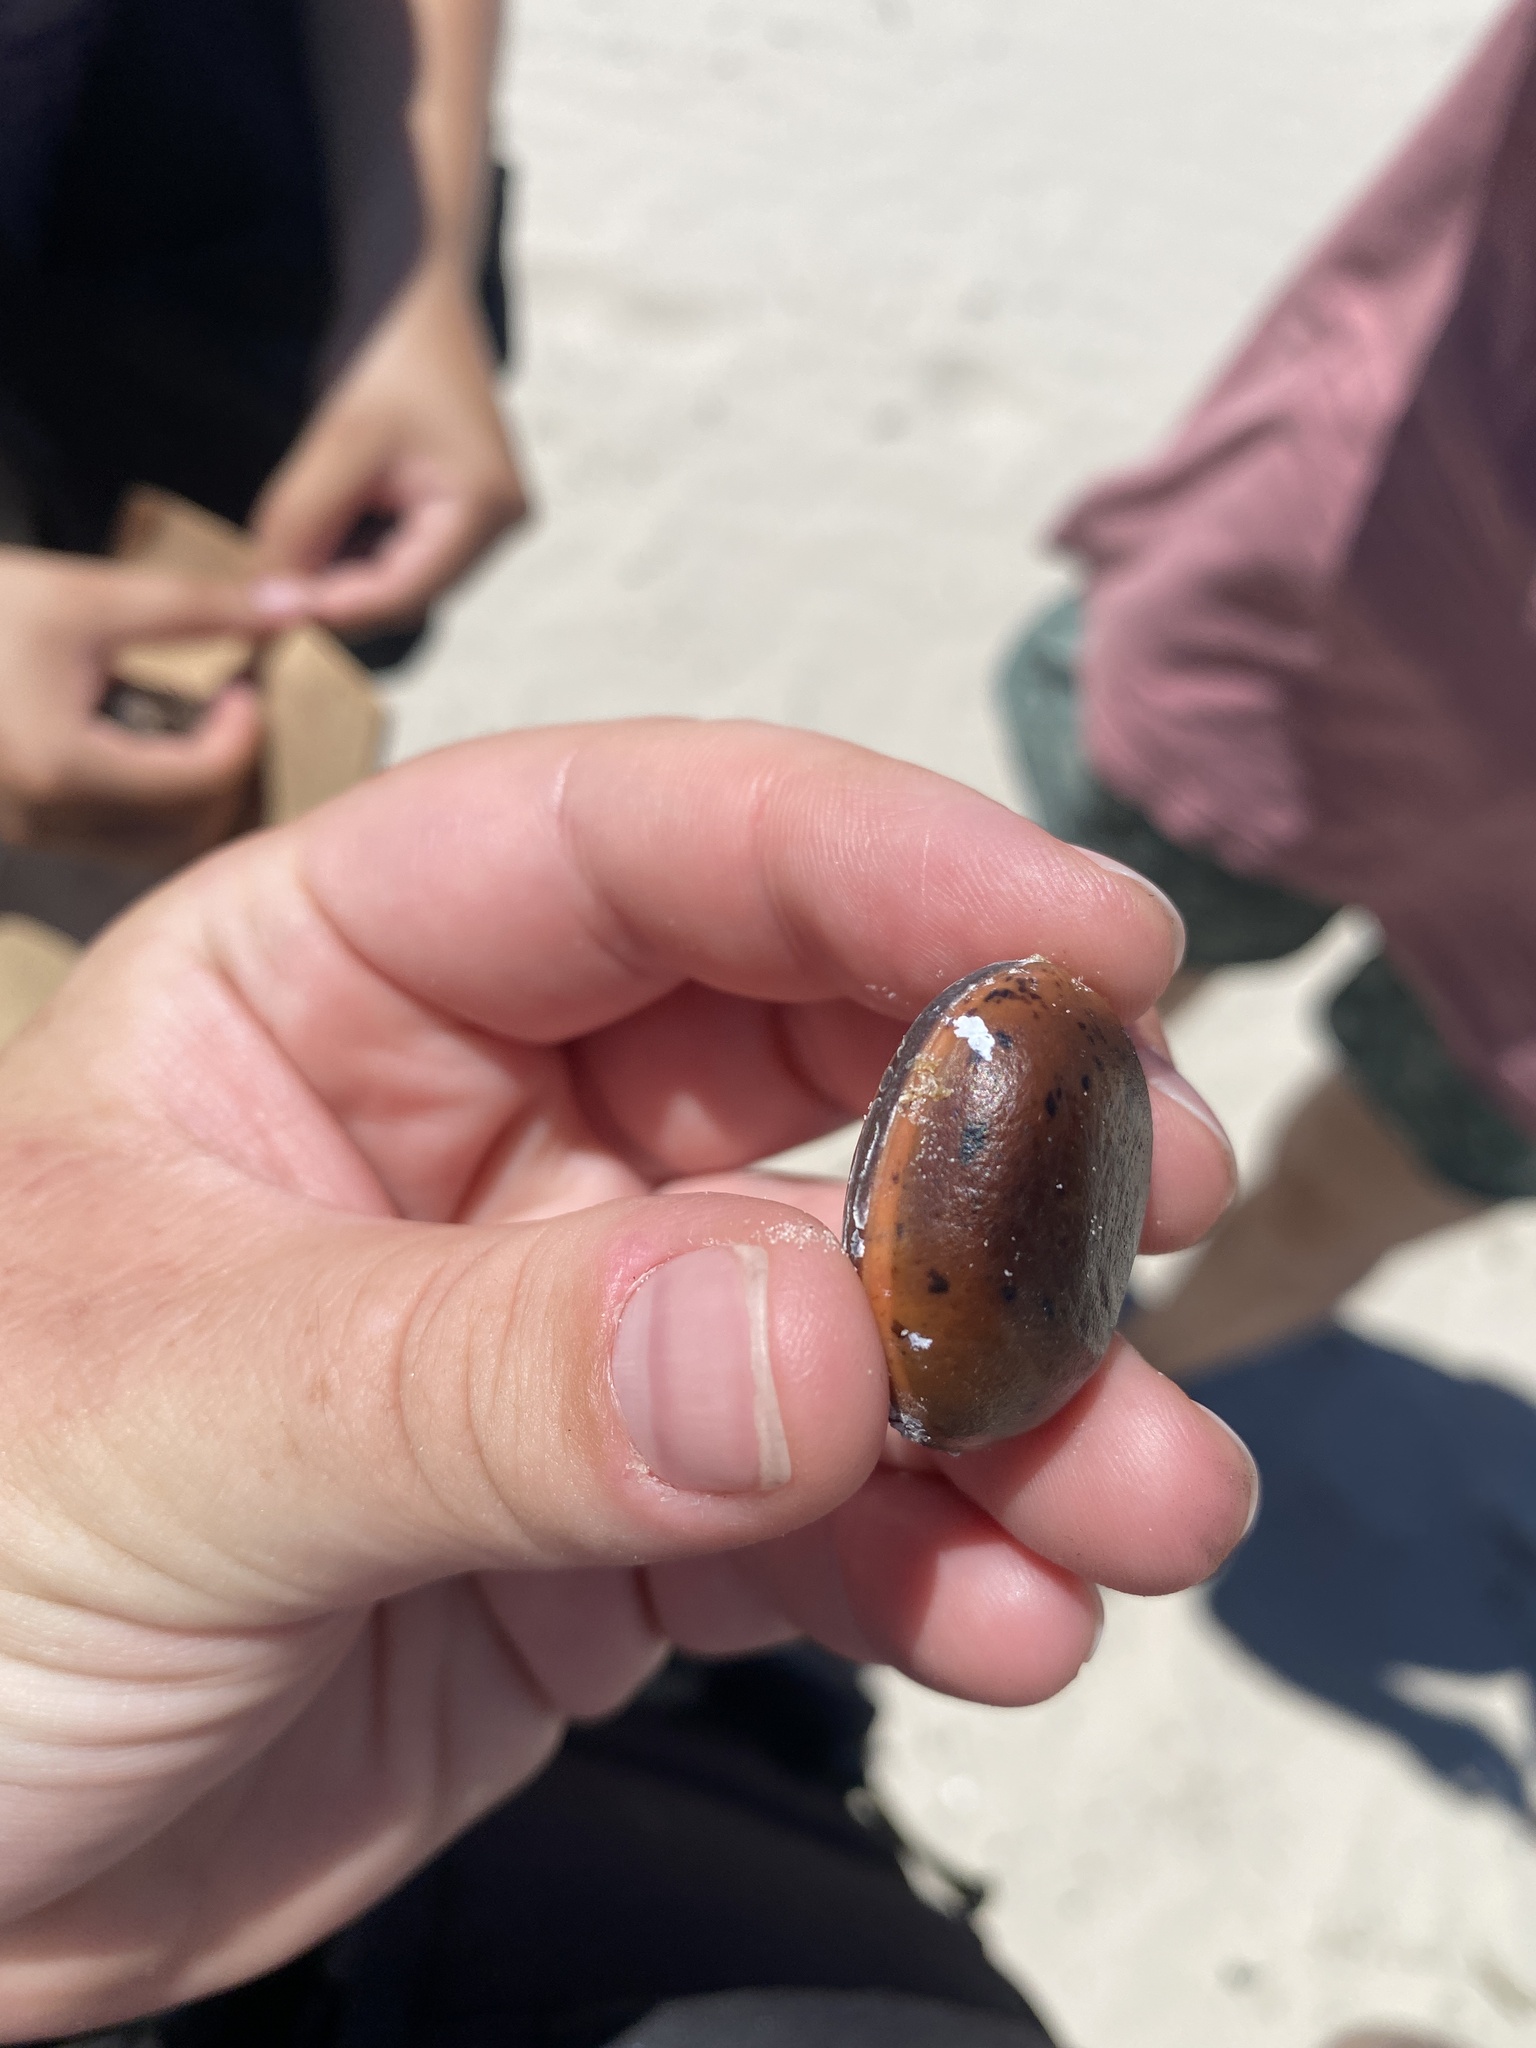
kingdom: Plantae
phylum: Tracheophyta
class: Magnoliopsida
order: Fabales
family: Fabaceae
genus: Macropsychanthus
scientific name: Macropsychanthus comosus
